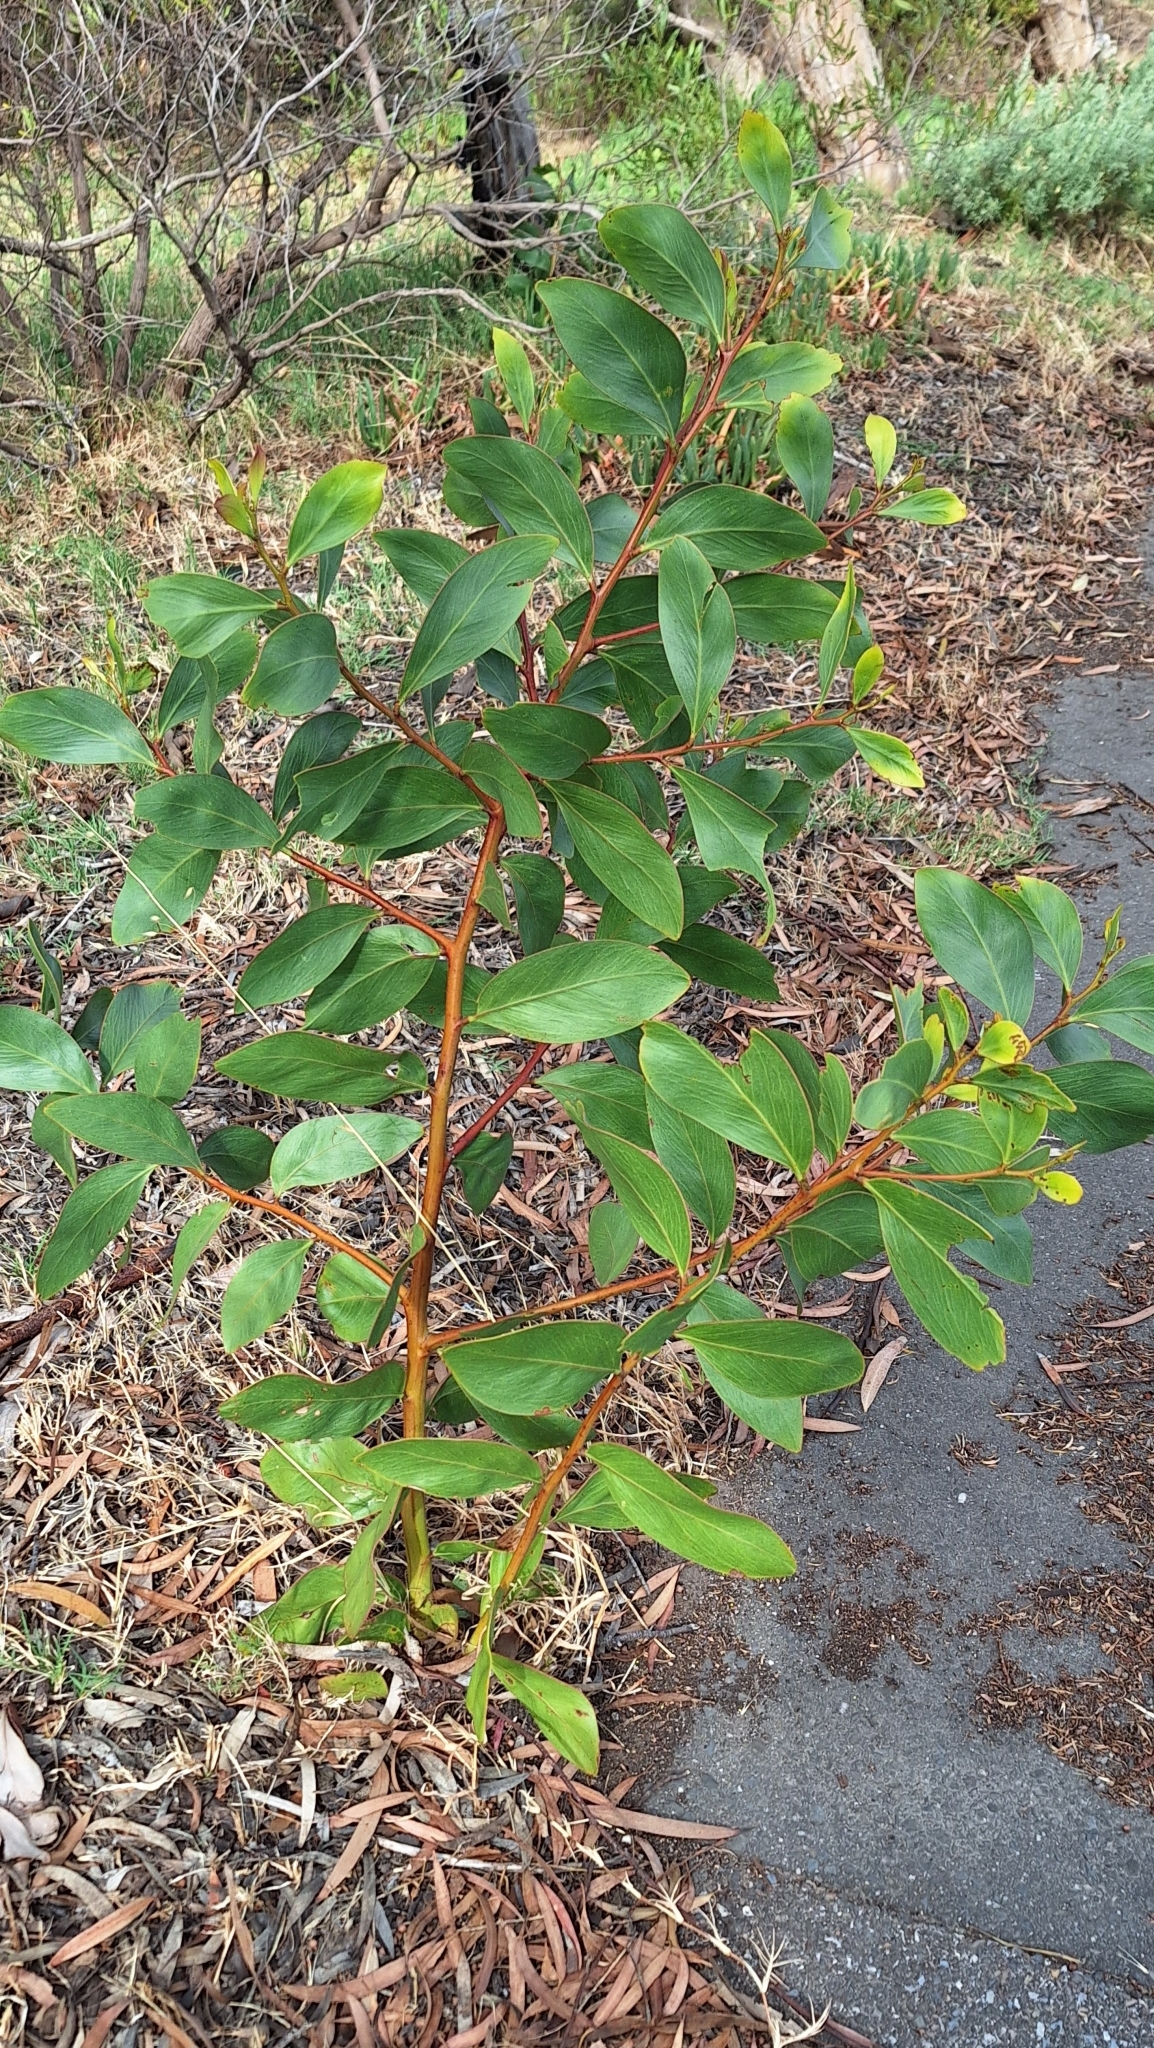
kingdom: Plantae
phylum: Tracheophyta
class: Magnoliopsida
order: Fabales
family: Fabaceae
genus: Acacia
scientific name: Acacia pycnantha
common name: Golden wattle
